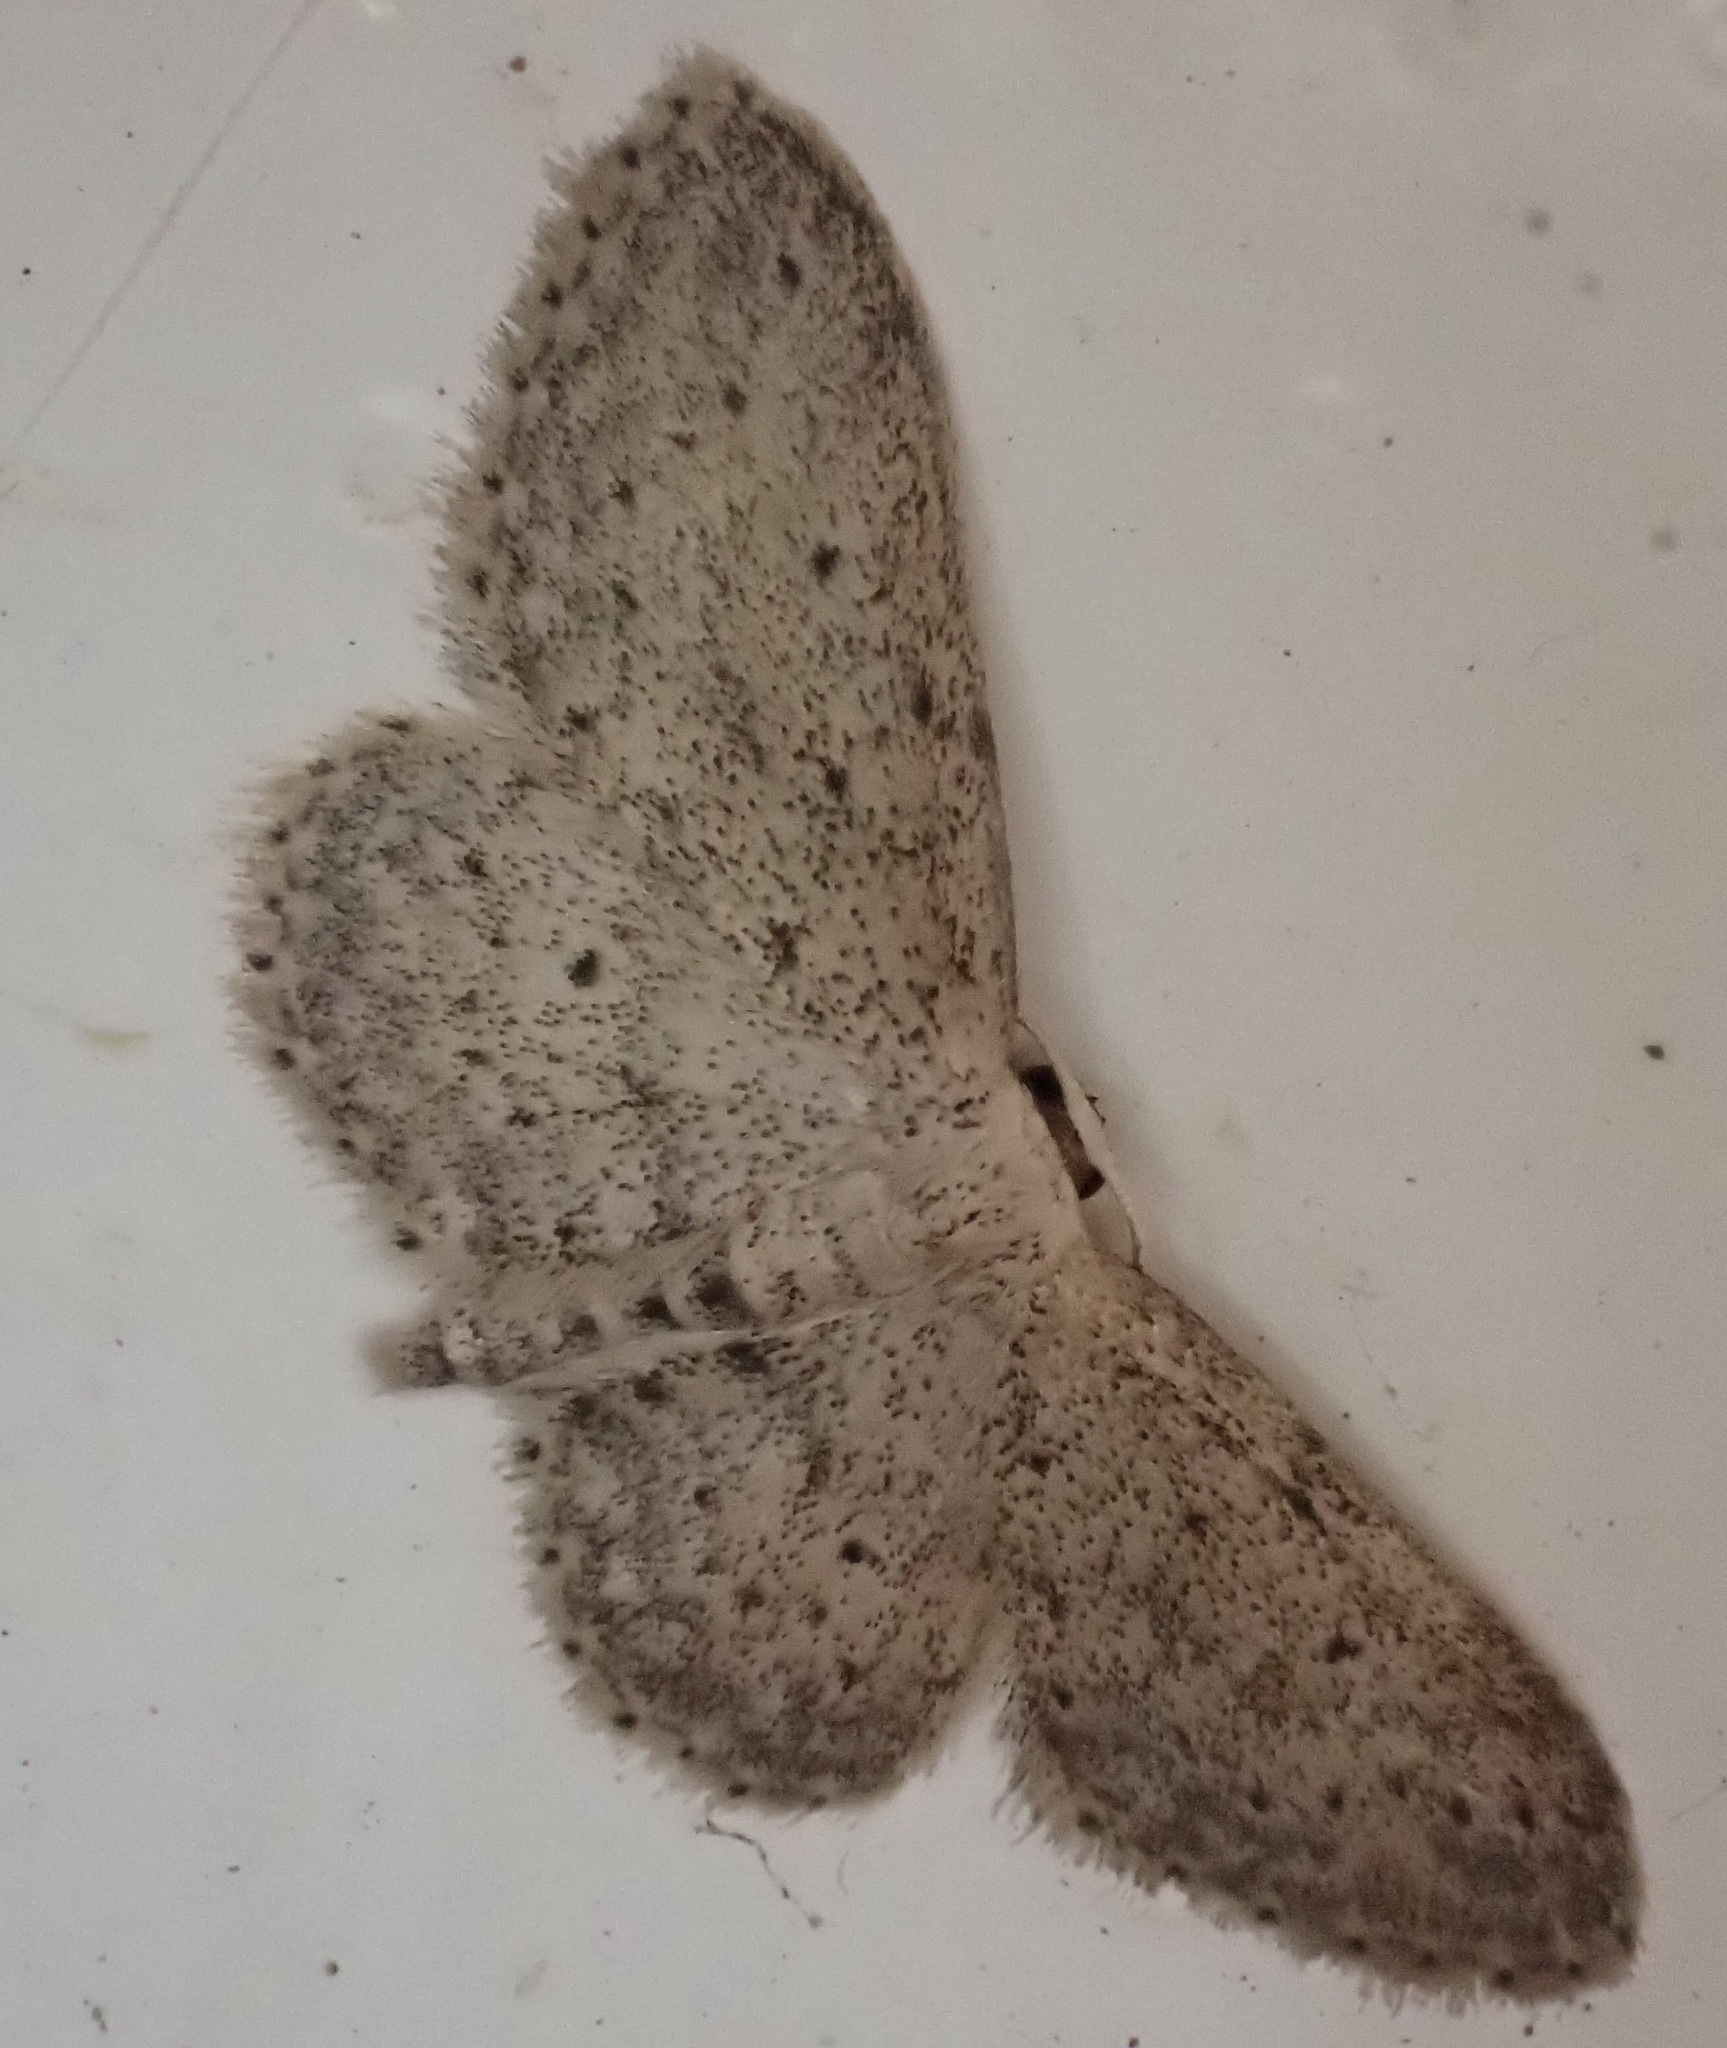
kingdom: Animalia
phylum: Arthropoda
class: Insecta
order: Lepidoptera
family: Geometridae
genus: Idaea
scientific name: Idaea seriata
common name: Small dusty wave
